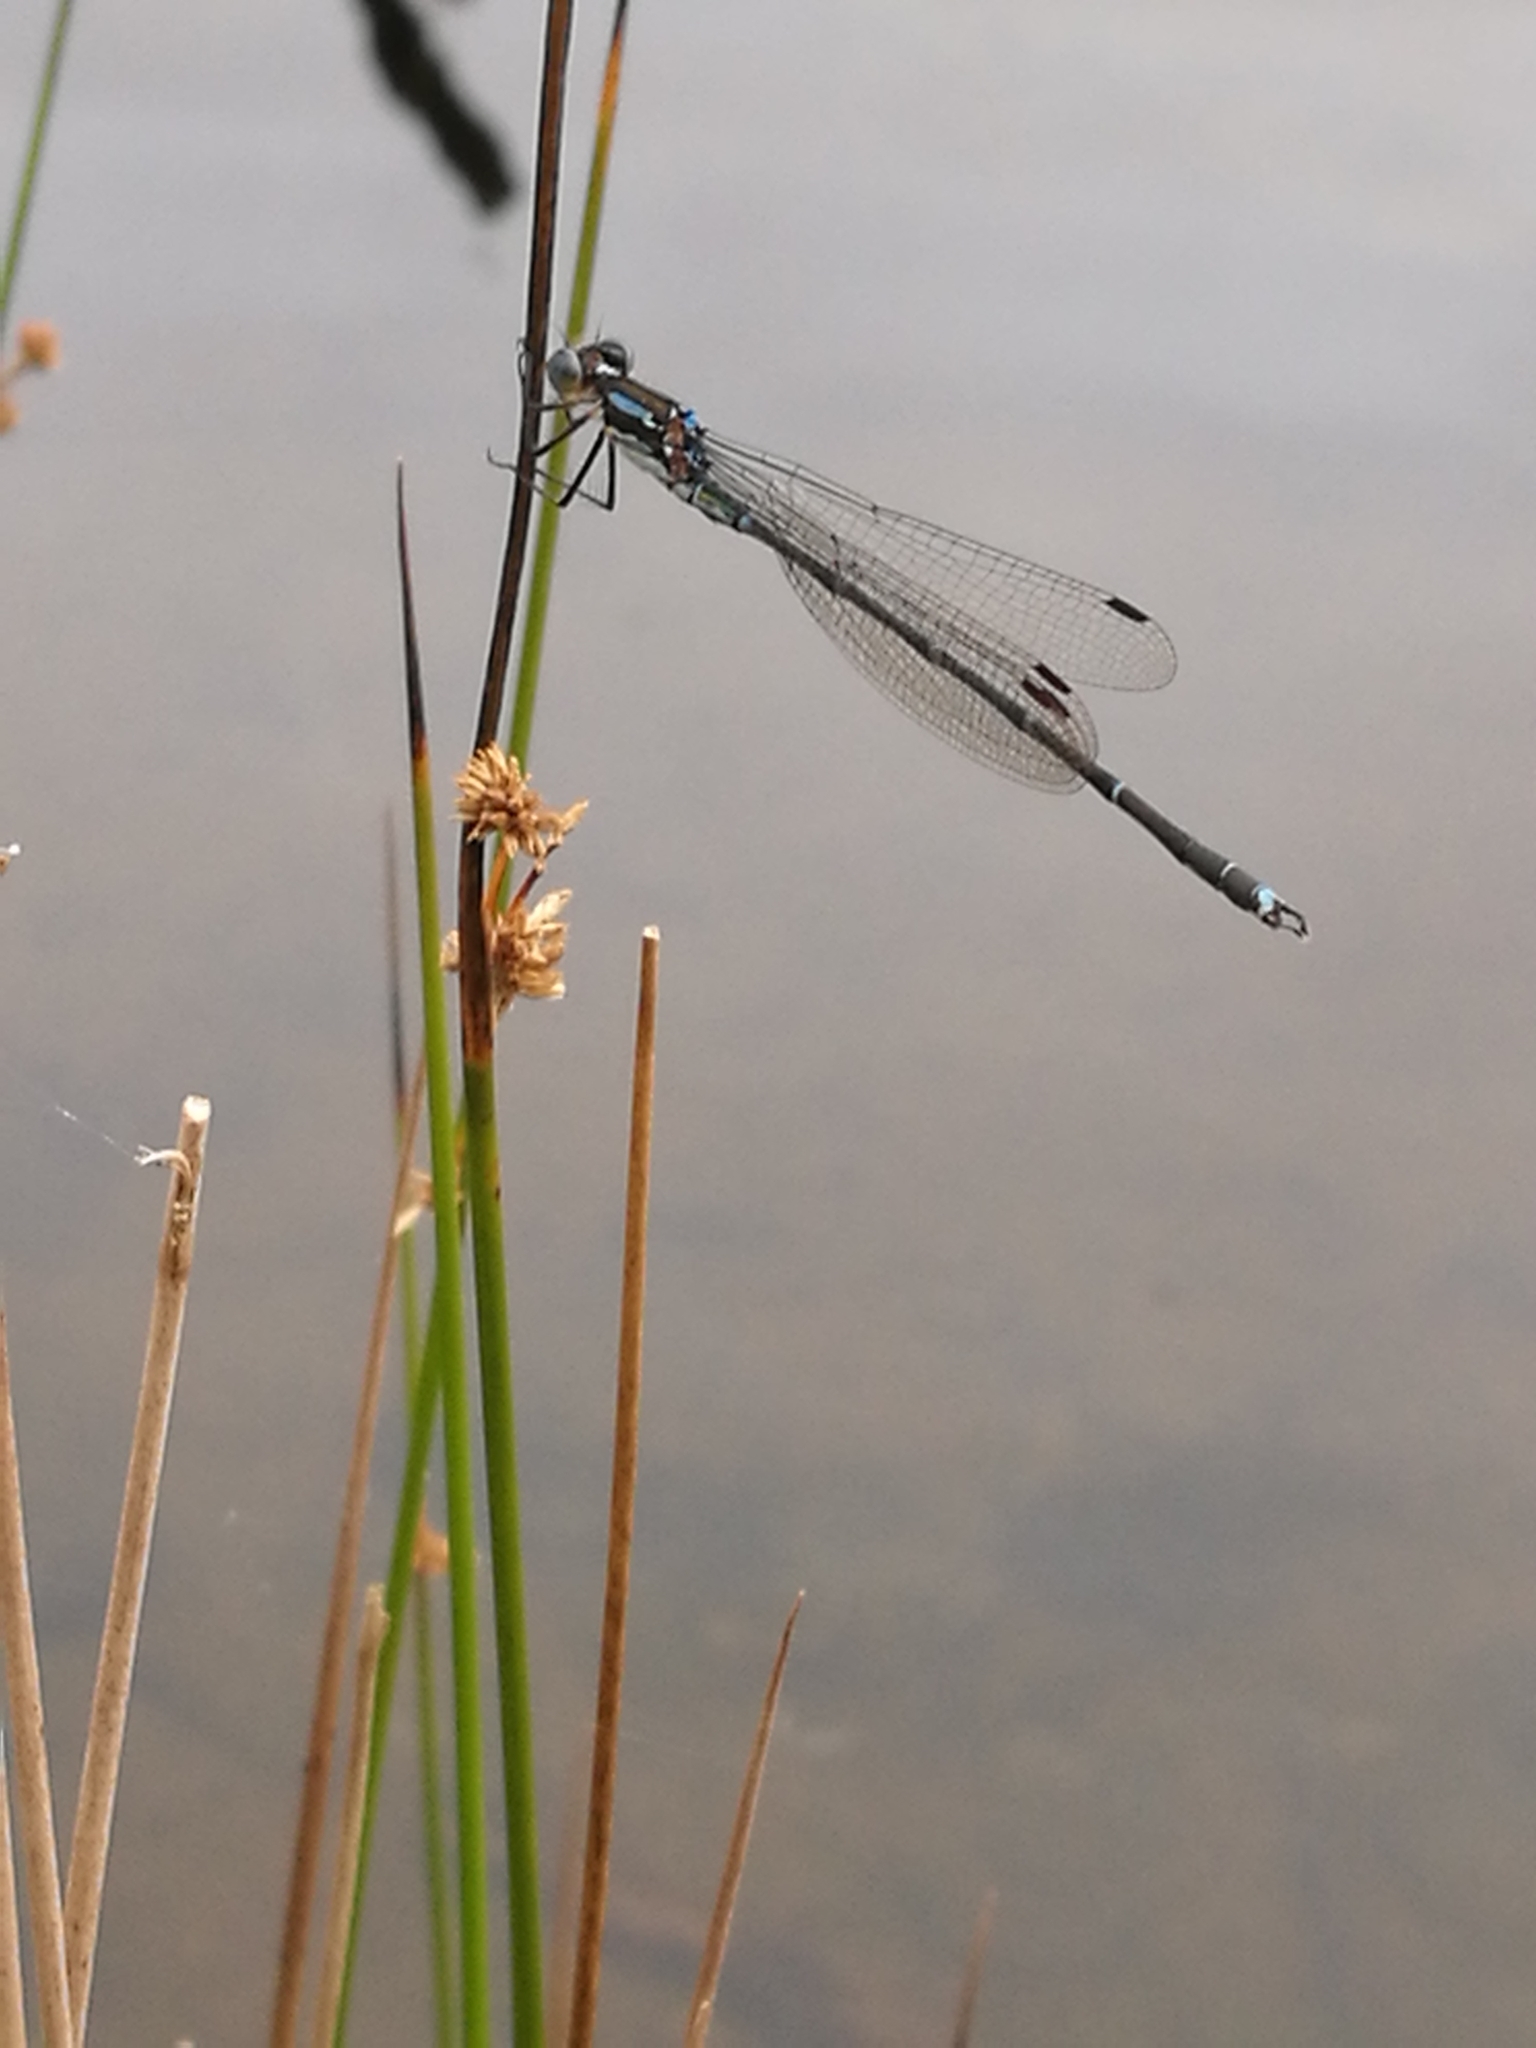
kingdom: Animalia
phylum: Arthropoda
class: Insecta
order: Odonata
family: Lestidae
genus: Austrolestes
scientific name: Austrolestes colensonis
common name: Blue damselfly
